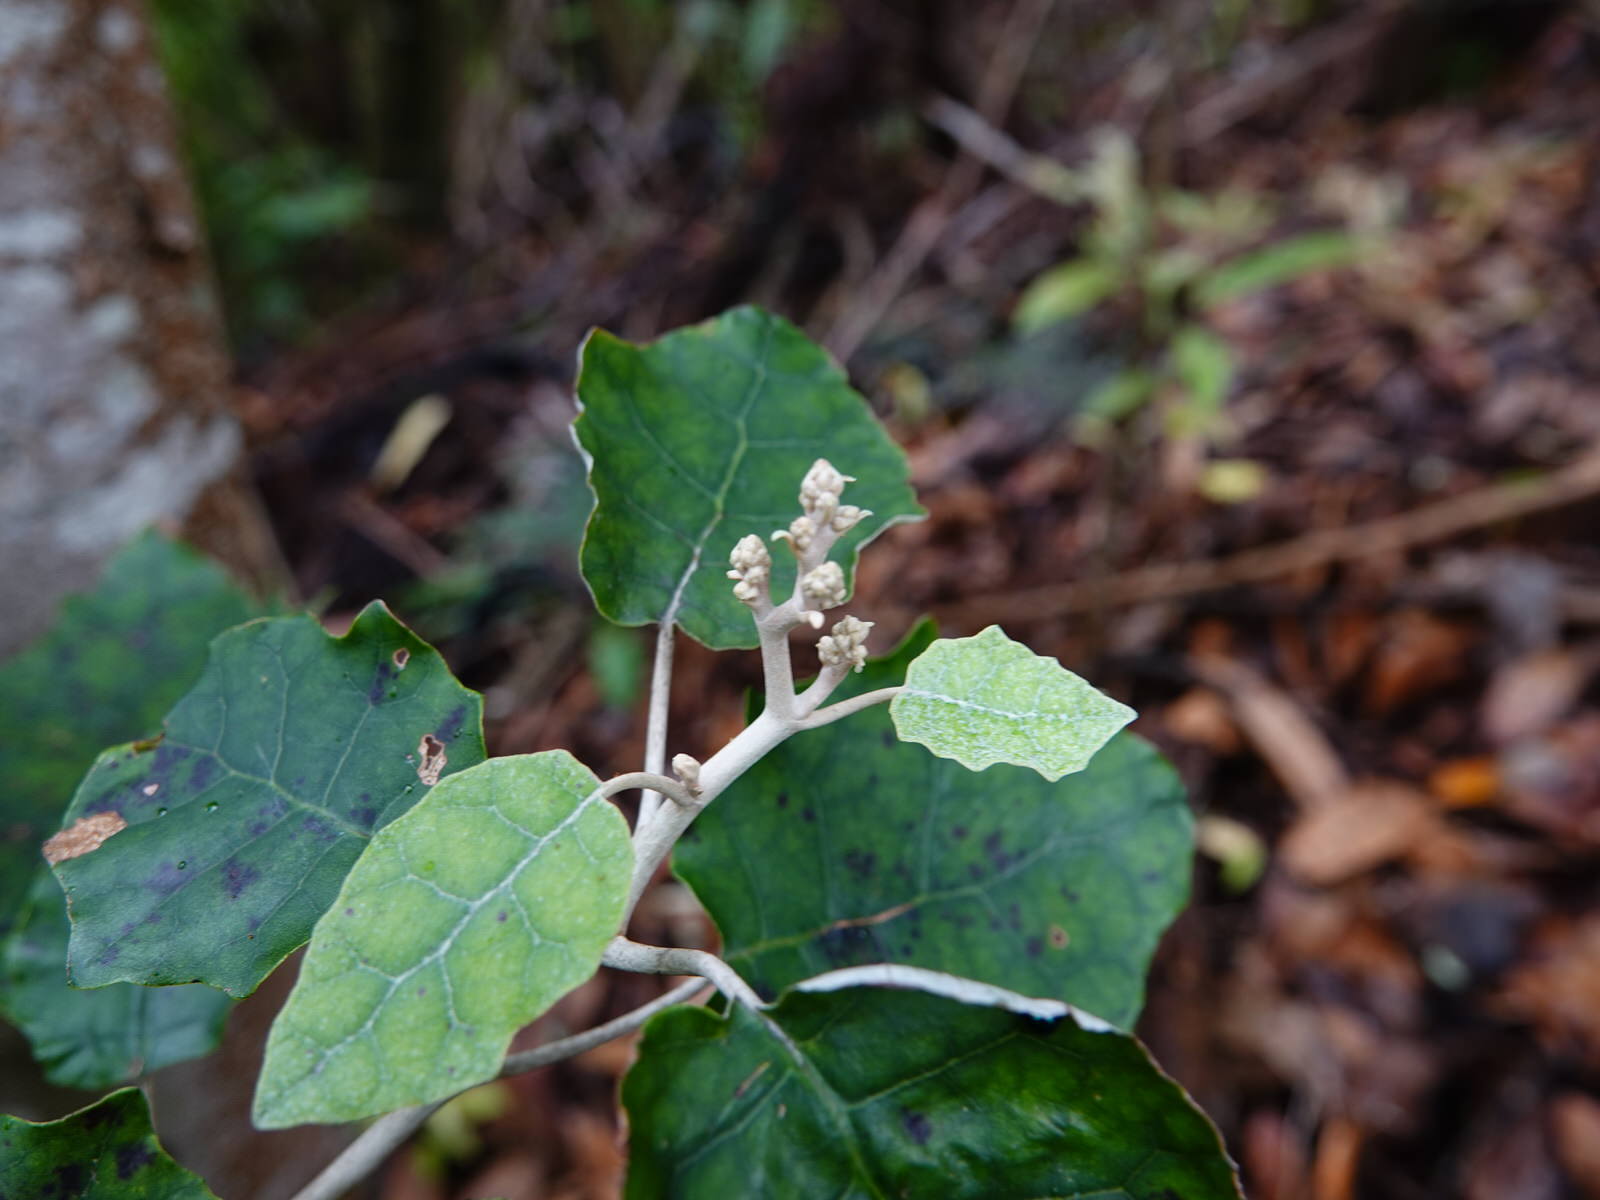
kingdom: Plantae
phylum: Tracheophyta
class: Magnoliopsida
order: Asterales
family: Asteraceae
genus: Brachyglottis
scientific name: Brachyglottis repanda
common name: Hedge ragwort
